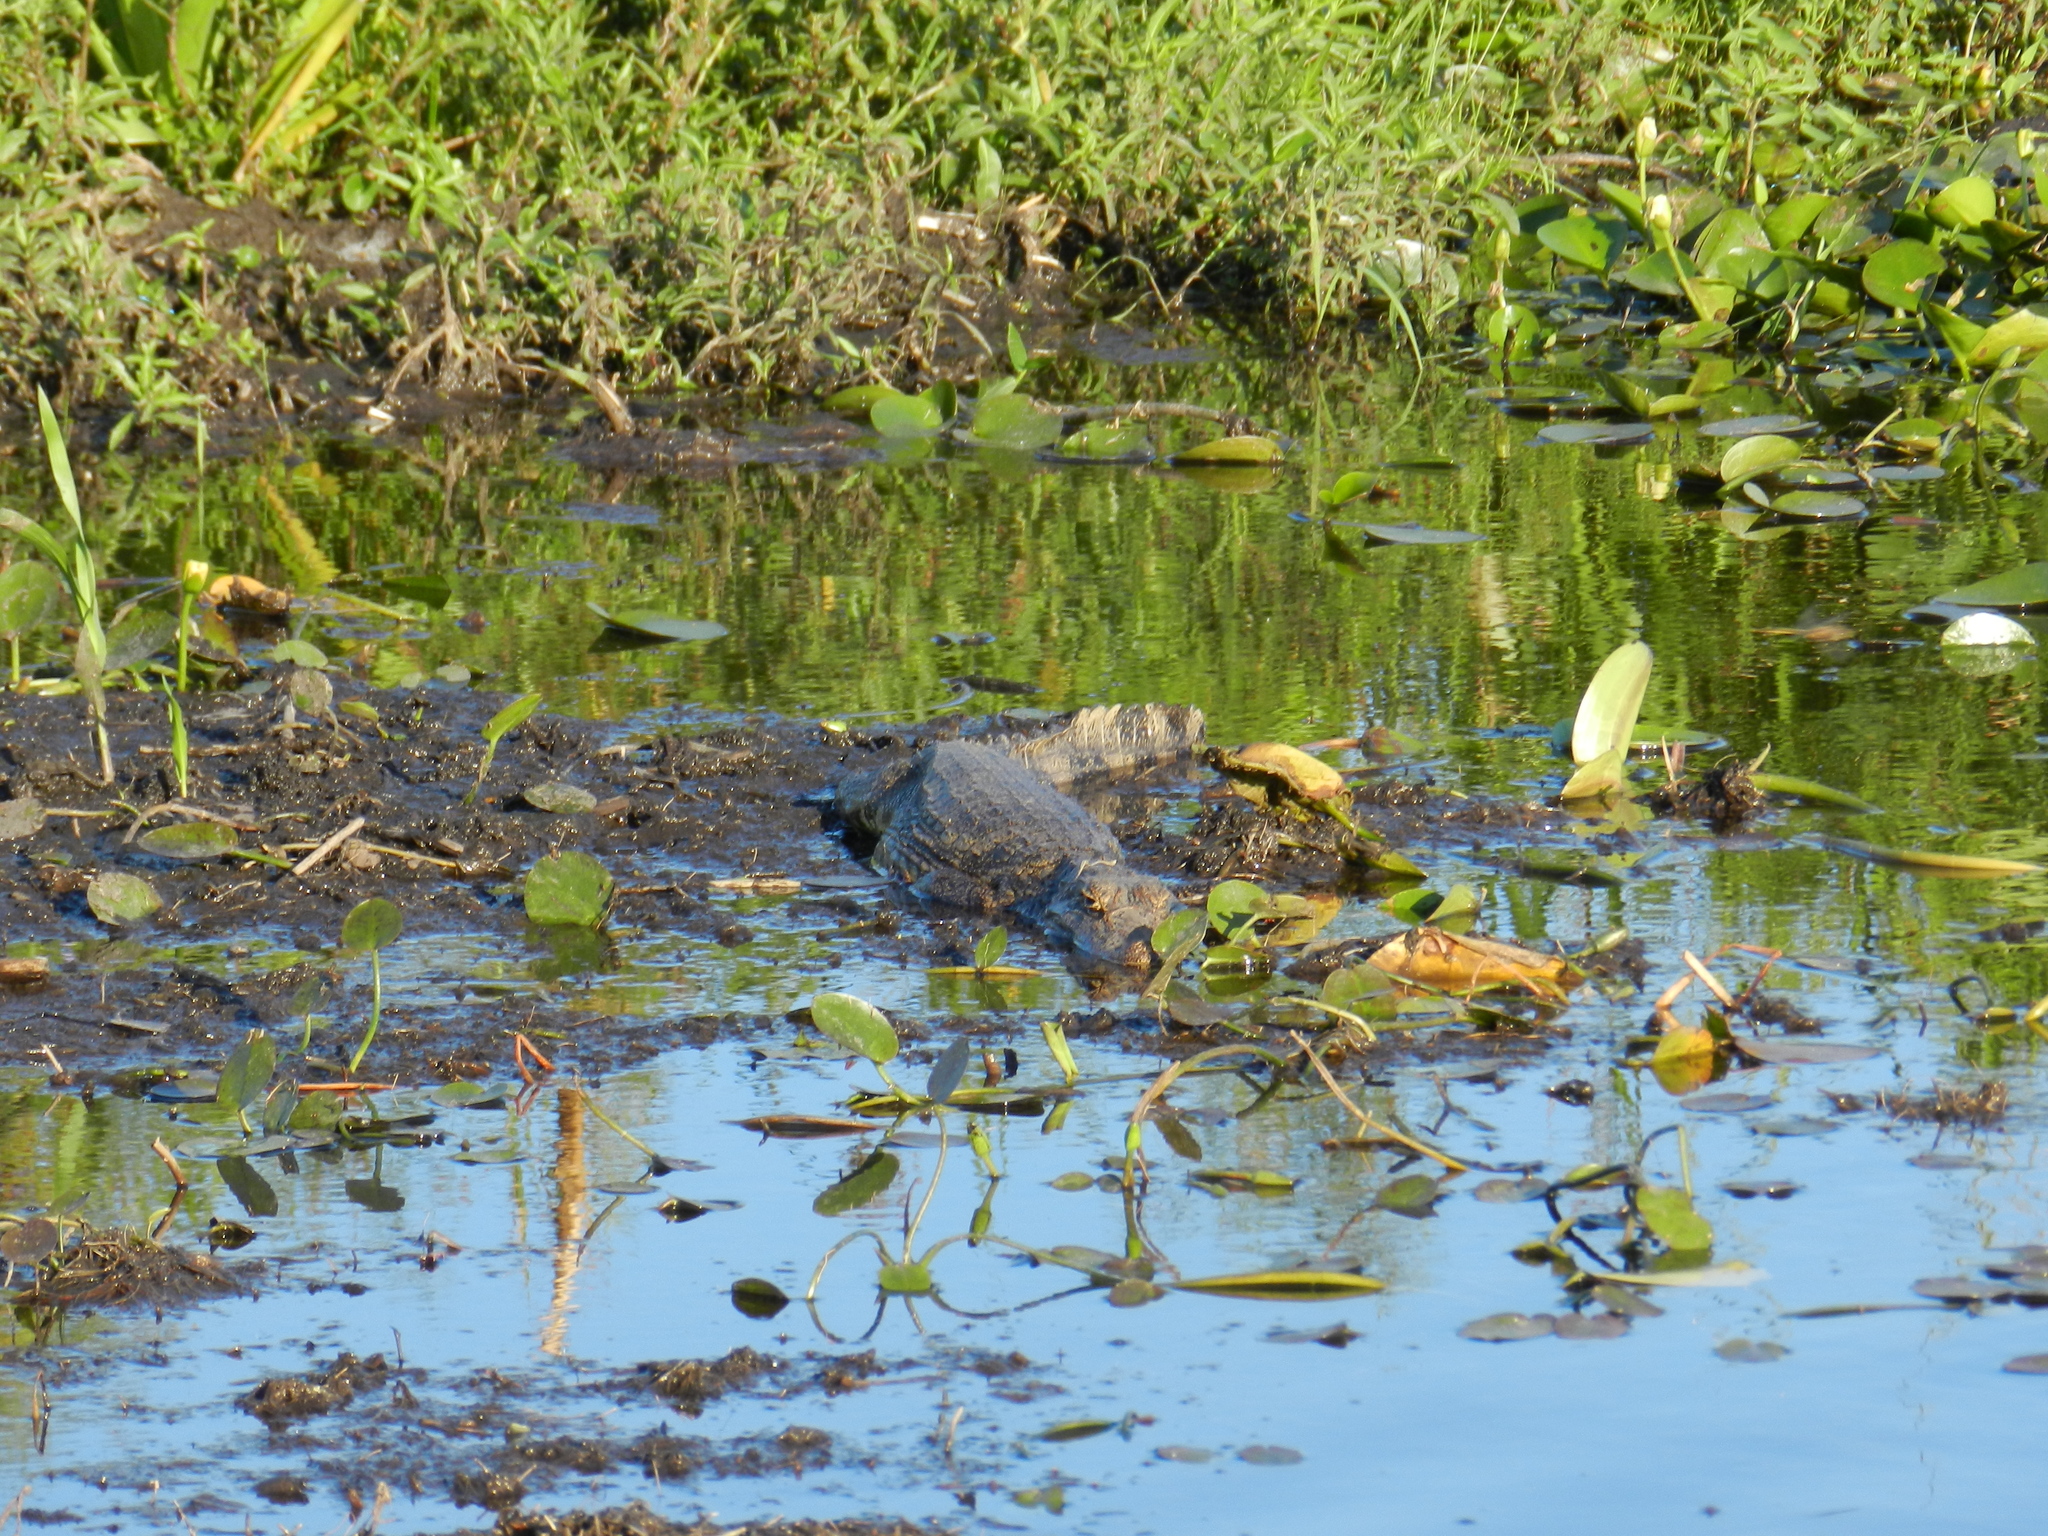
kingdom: Animalia
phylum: Chordata
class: Crocodylia
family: Alligatoridae
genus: Caiman
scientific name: Caiman yacare
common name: Yacare caiman
